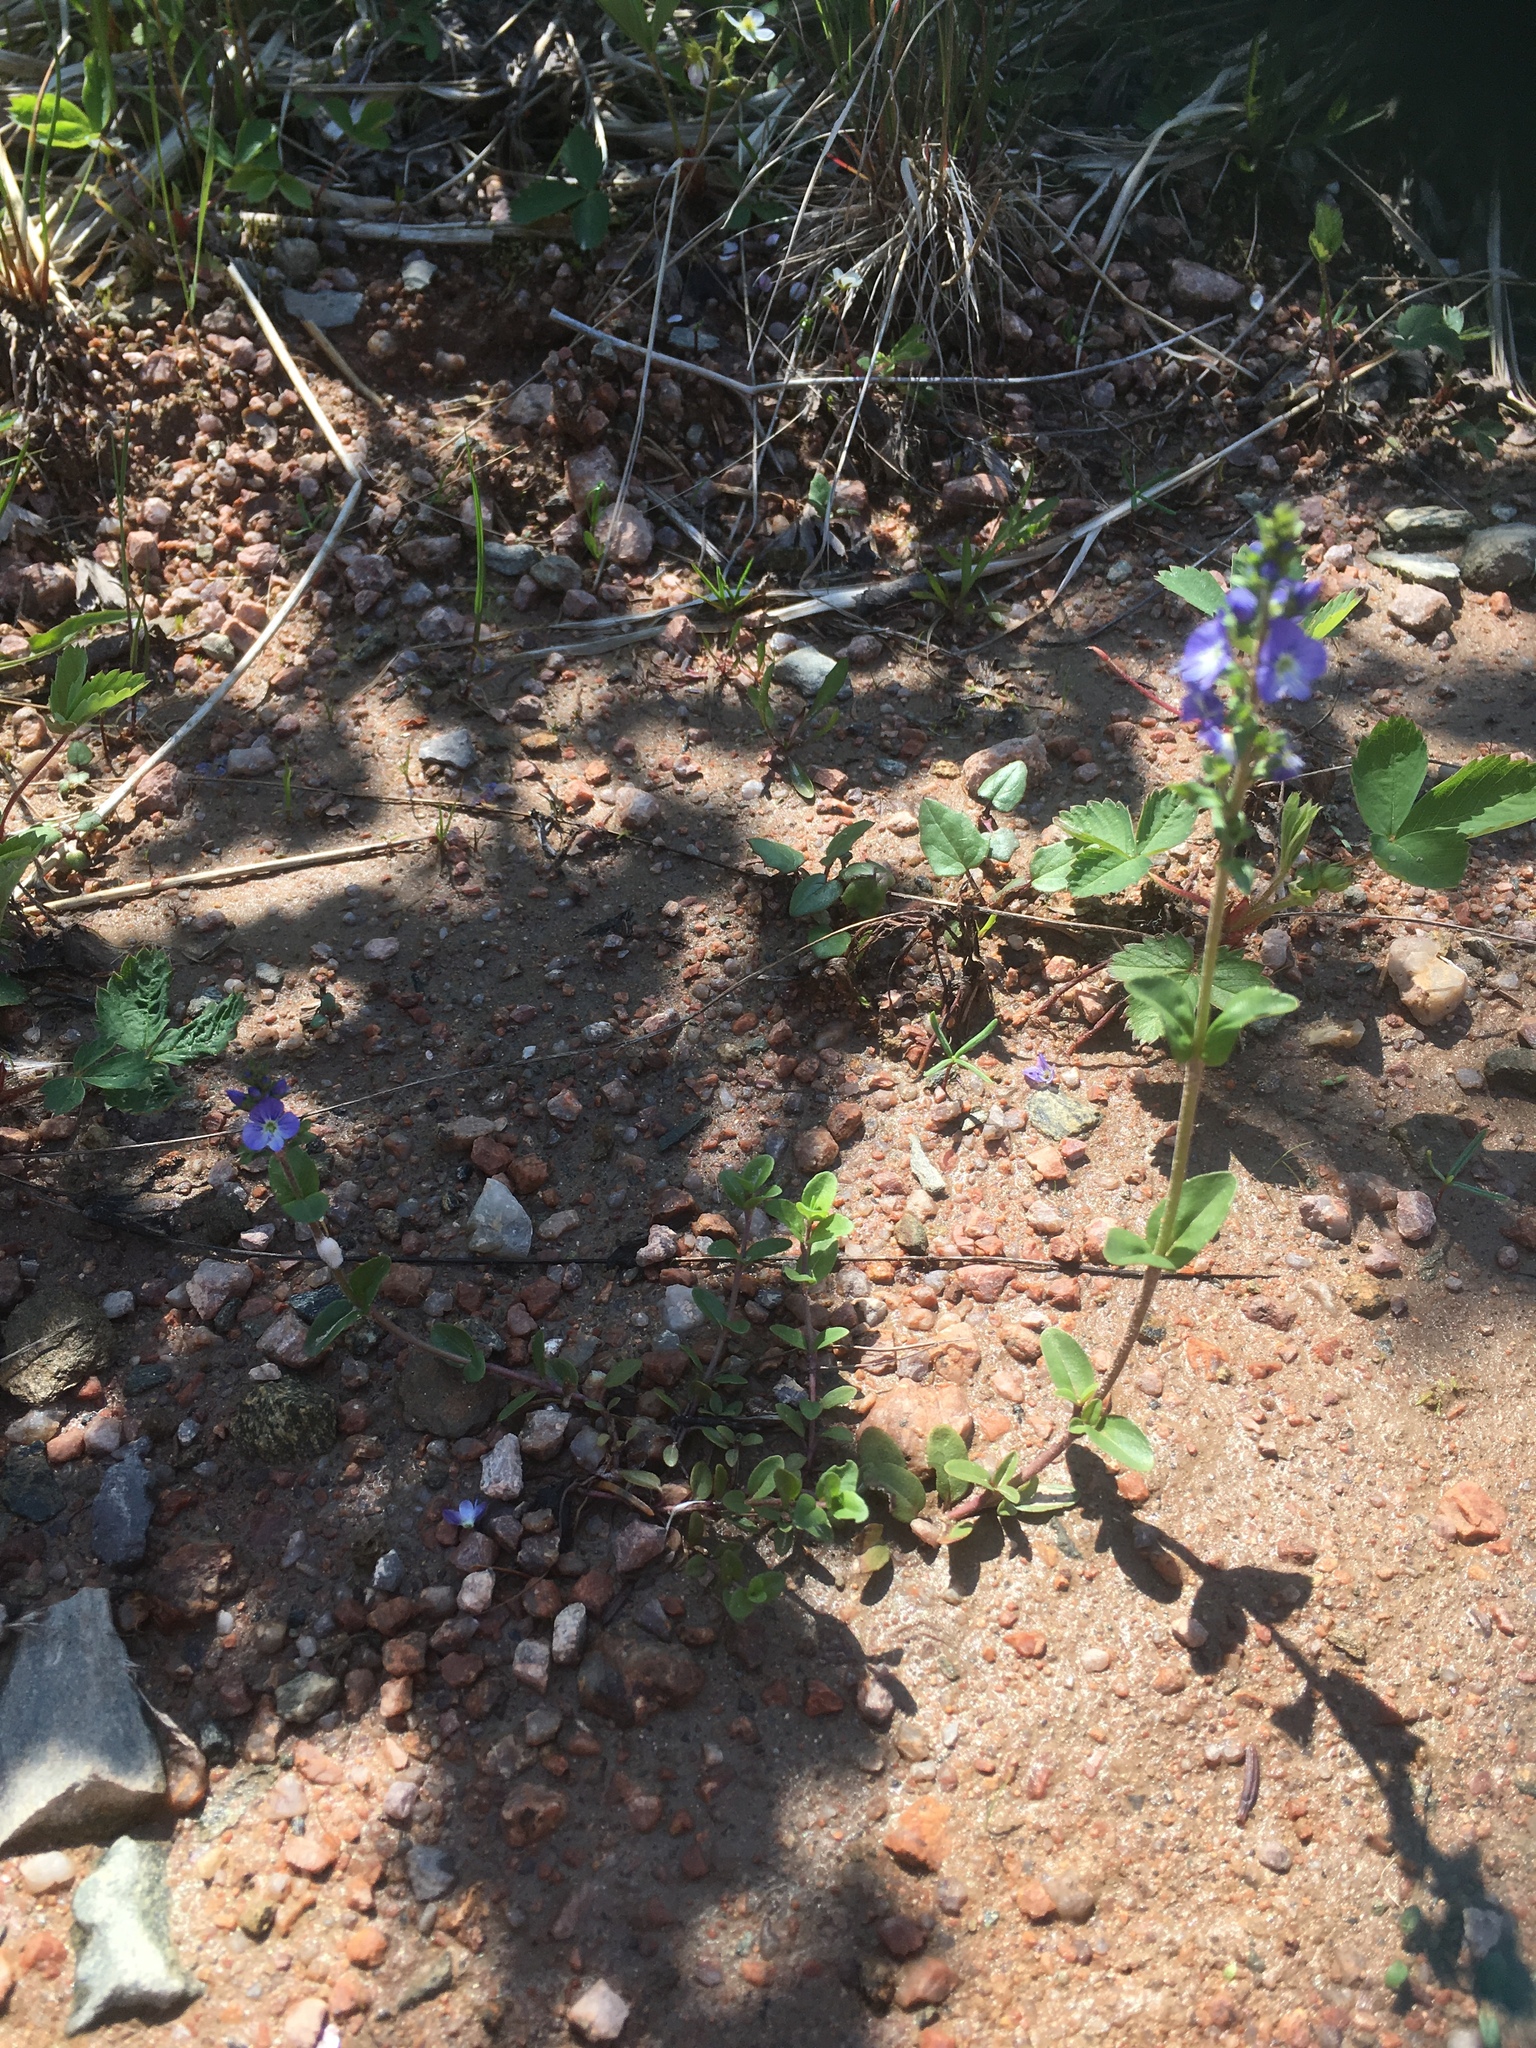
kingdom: Plantae
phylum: Tracheophyta
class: Magnoliopsida
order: Lamiales
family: Plantaginaceae
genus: Veronica
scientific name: Veronica serpyllifolia
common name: Thyme-leaved speedwell
